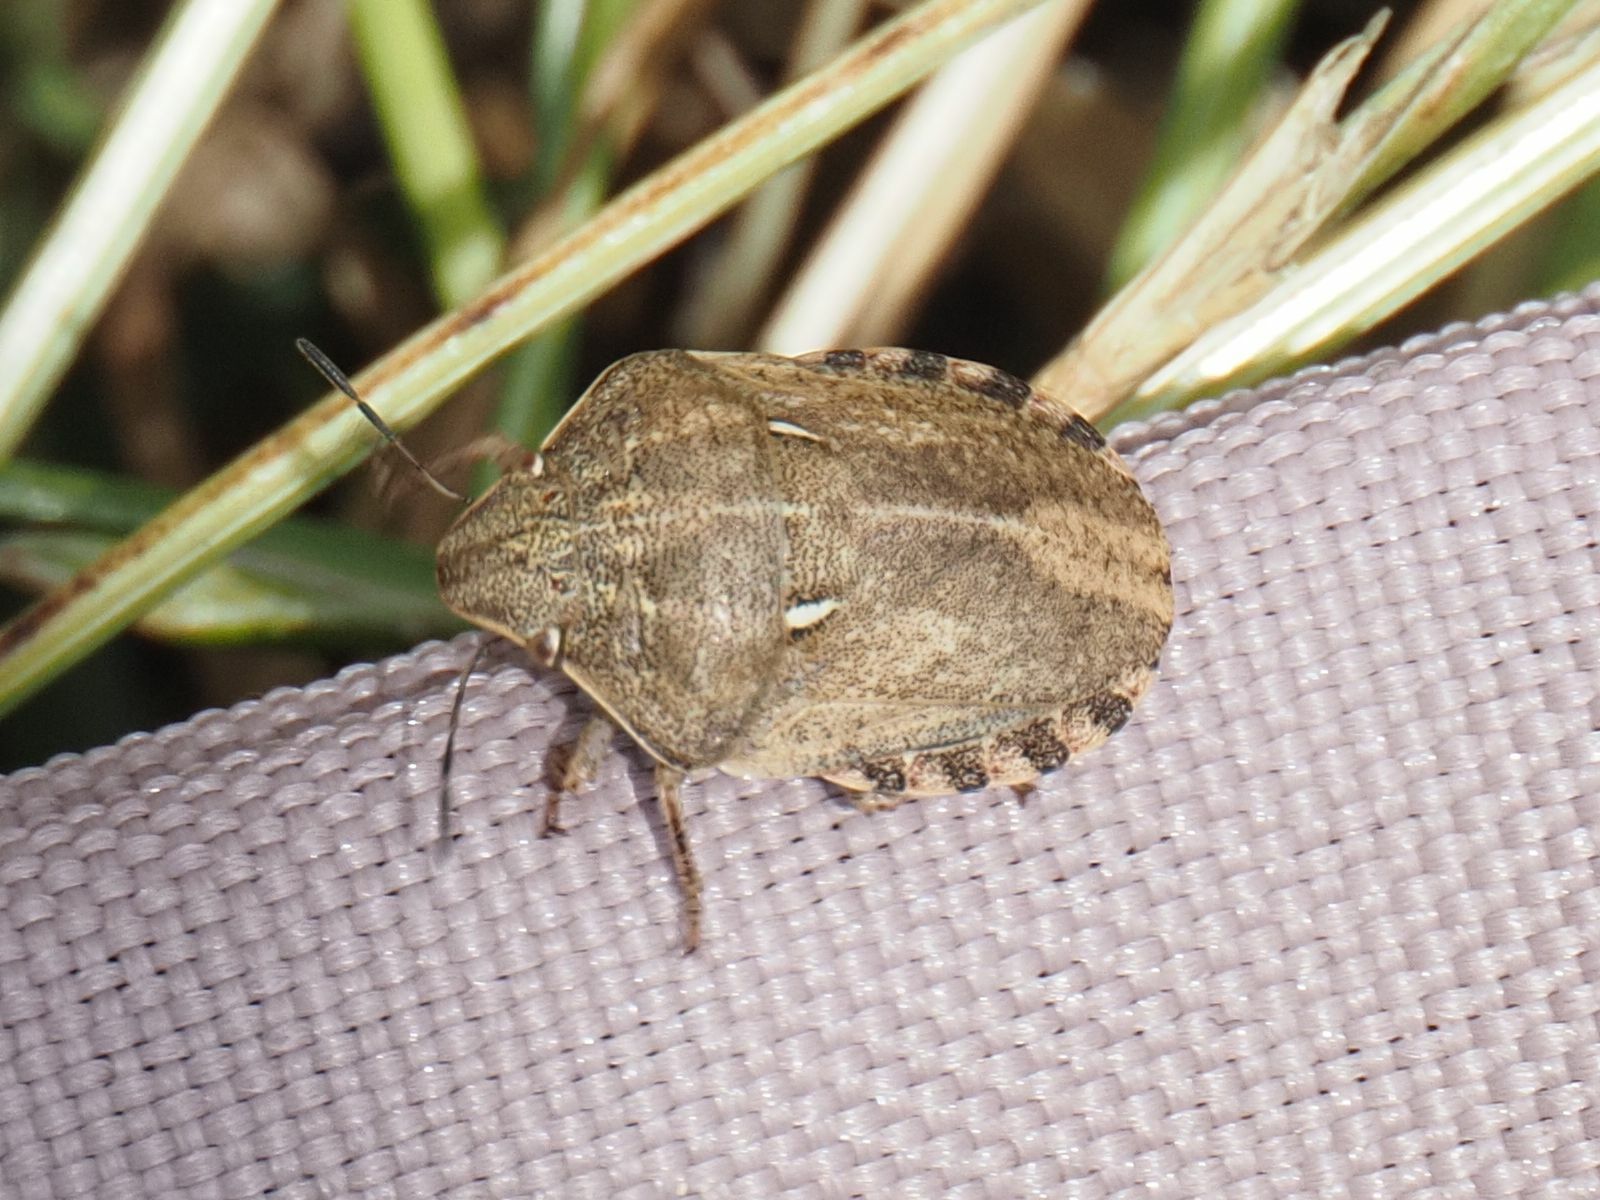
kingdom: Animalia
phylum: Arthropoda
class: Insecta
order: Hemiptera
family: Scutelleridae
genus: Eurygaster
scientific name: Eurygaster maura
